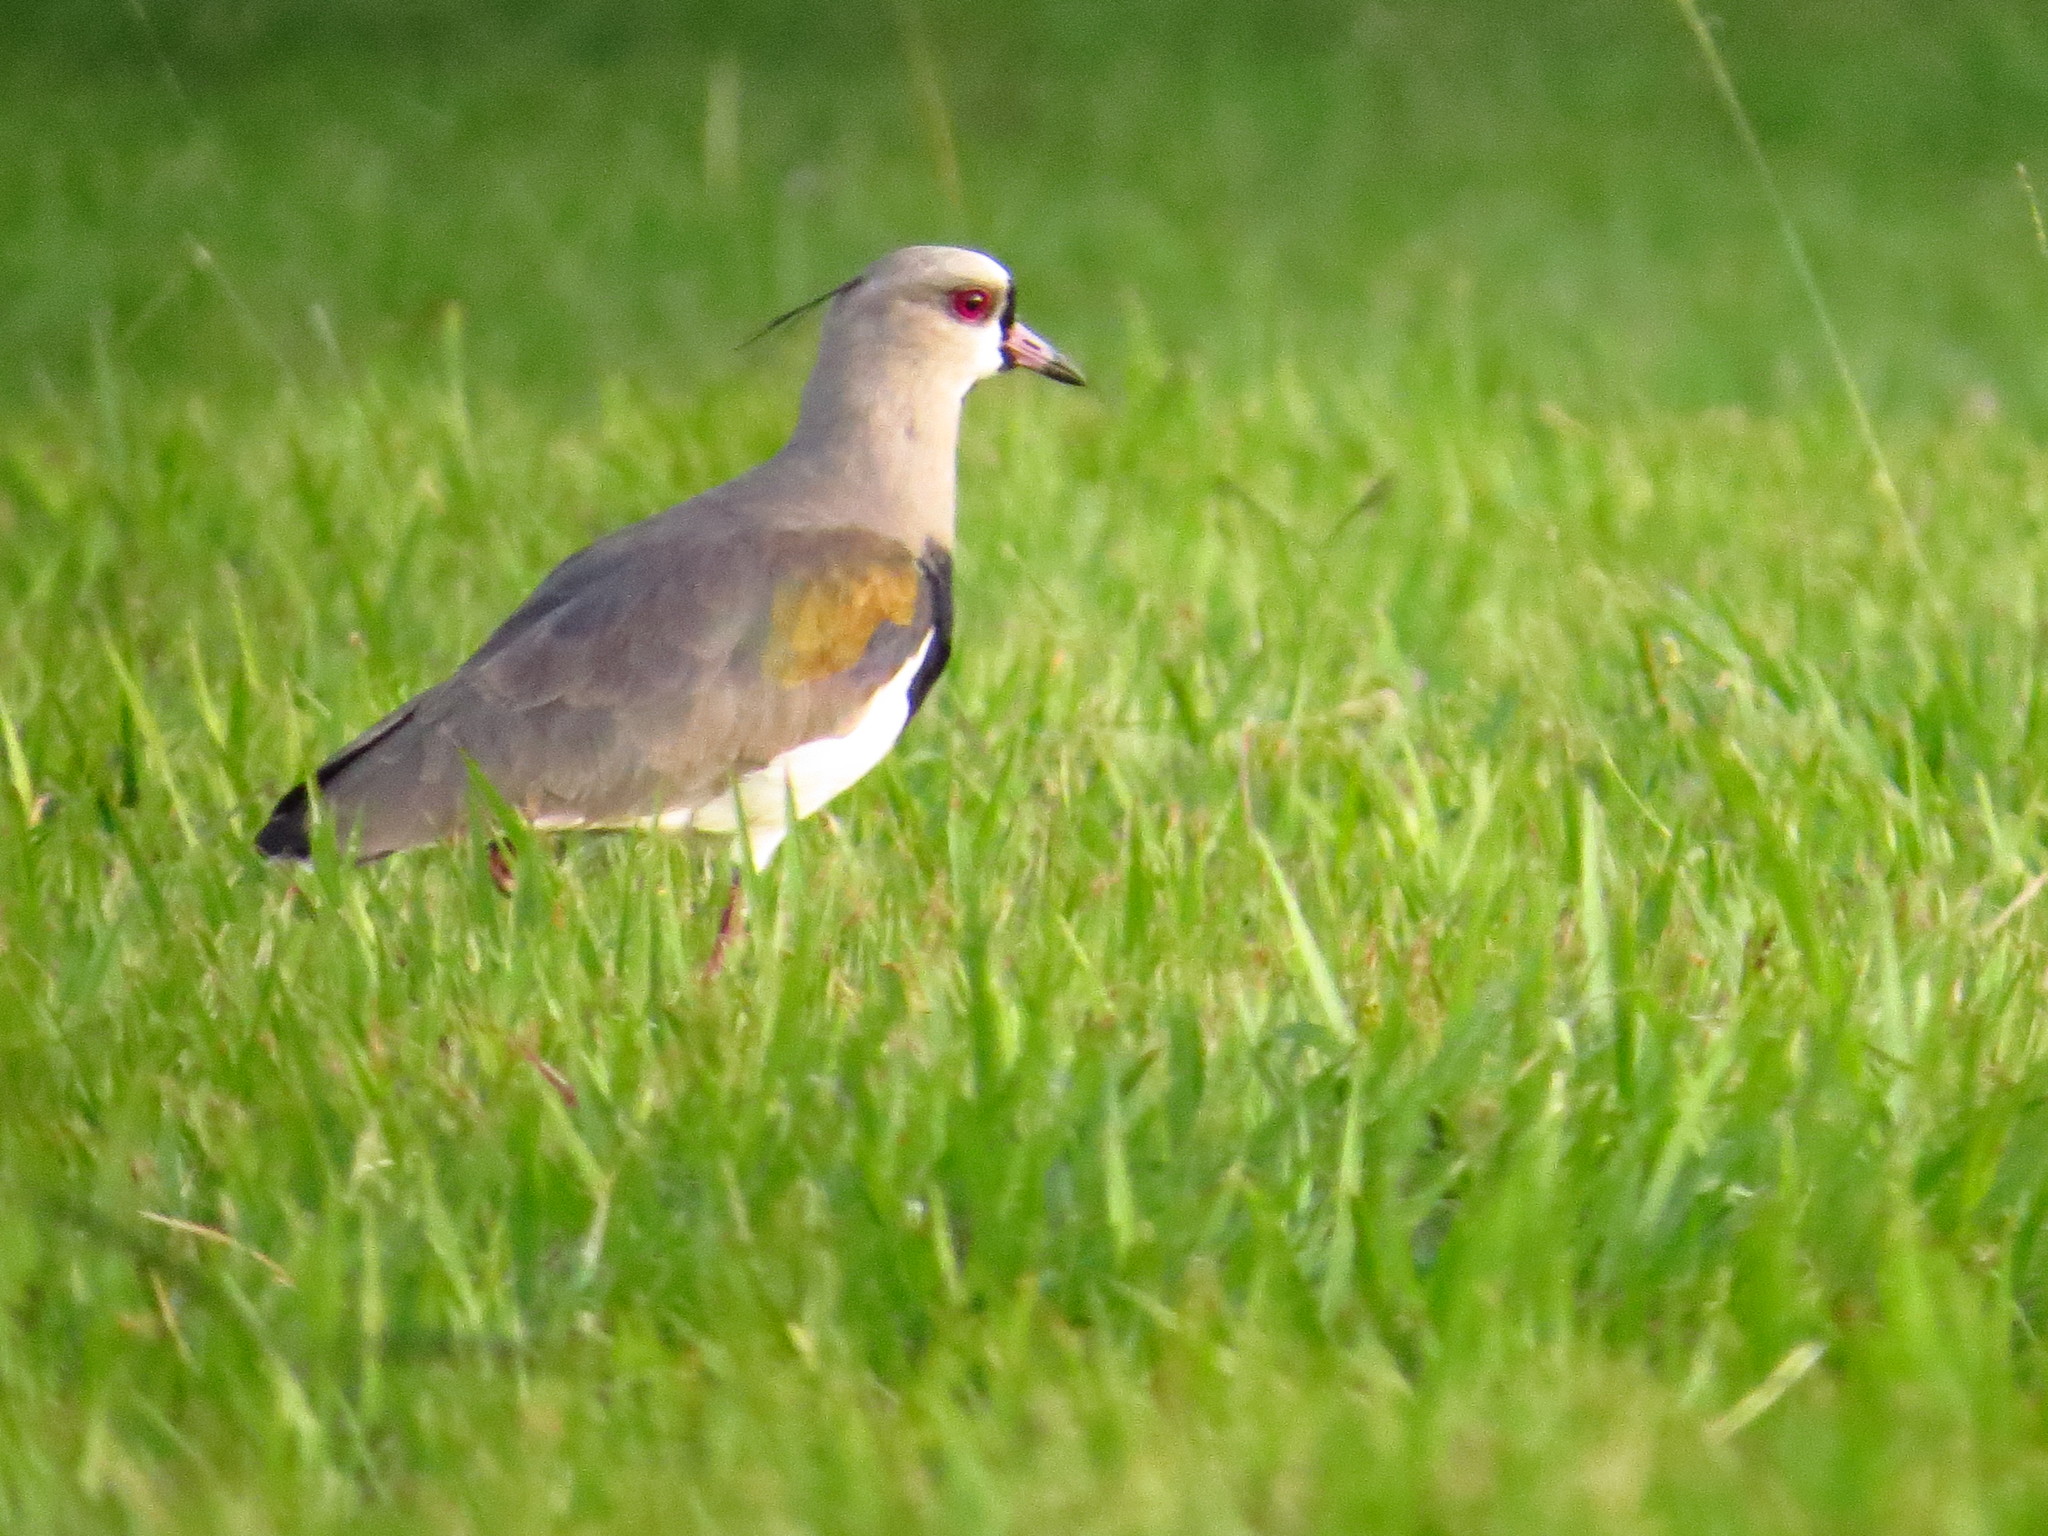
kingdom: Animalia
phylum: Chordata
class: Aves
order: Charadriiformes
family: Charadriidae
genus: Vanellus
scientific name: Vanellus chilensis
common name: Southern lapwing
